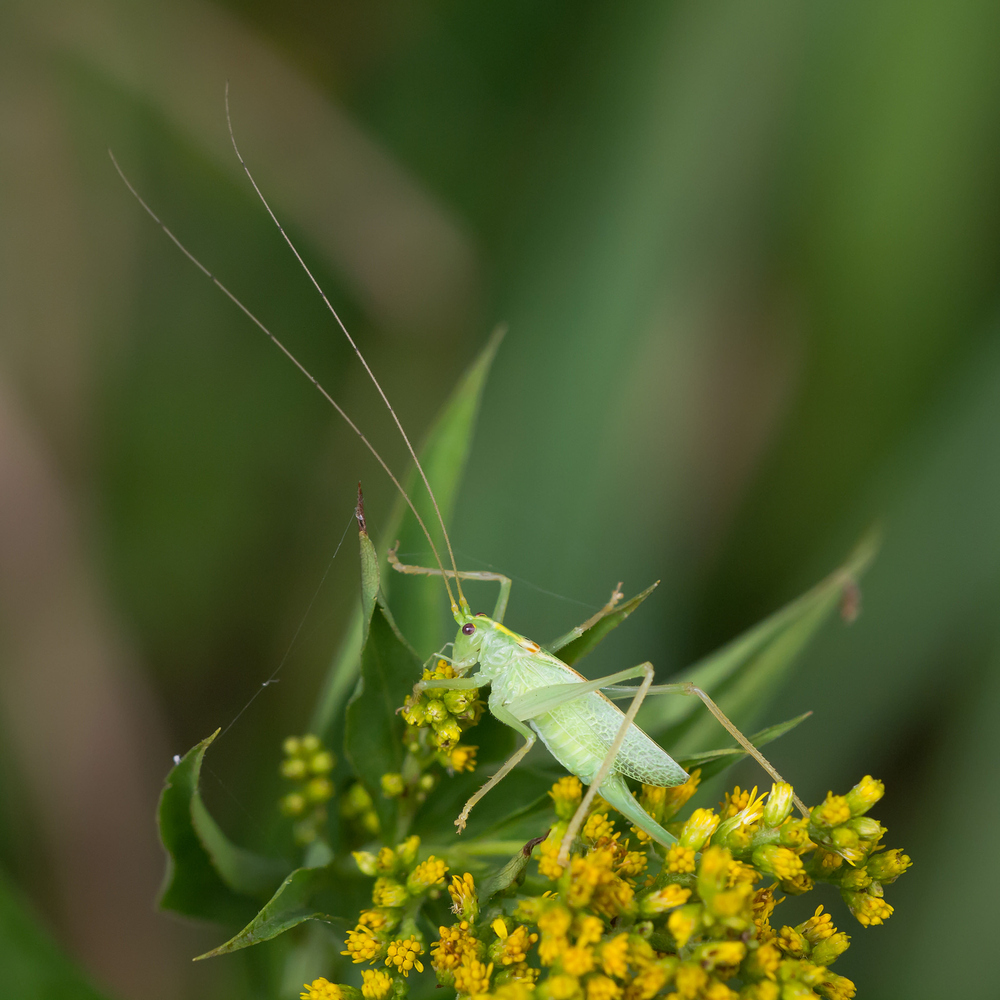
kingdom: Animalia
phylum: Arthropoda
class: Insecta
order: Orthoptera
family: Tettigoniidae
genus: Meconema
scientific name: Meconema thalassinum
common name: Oak bush-cricket
